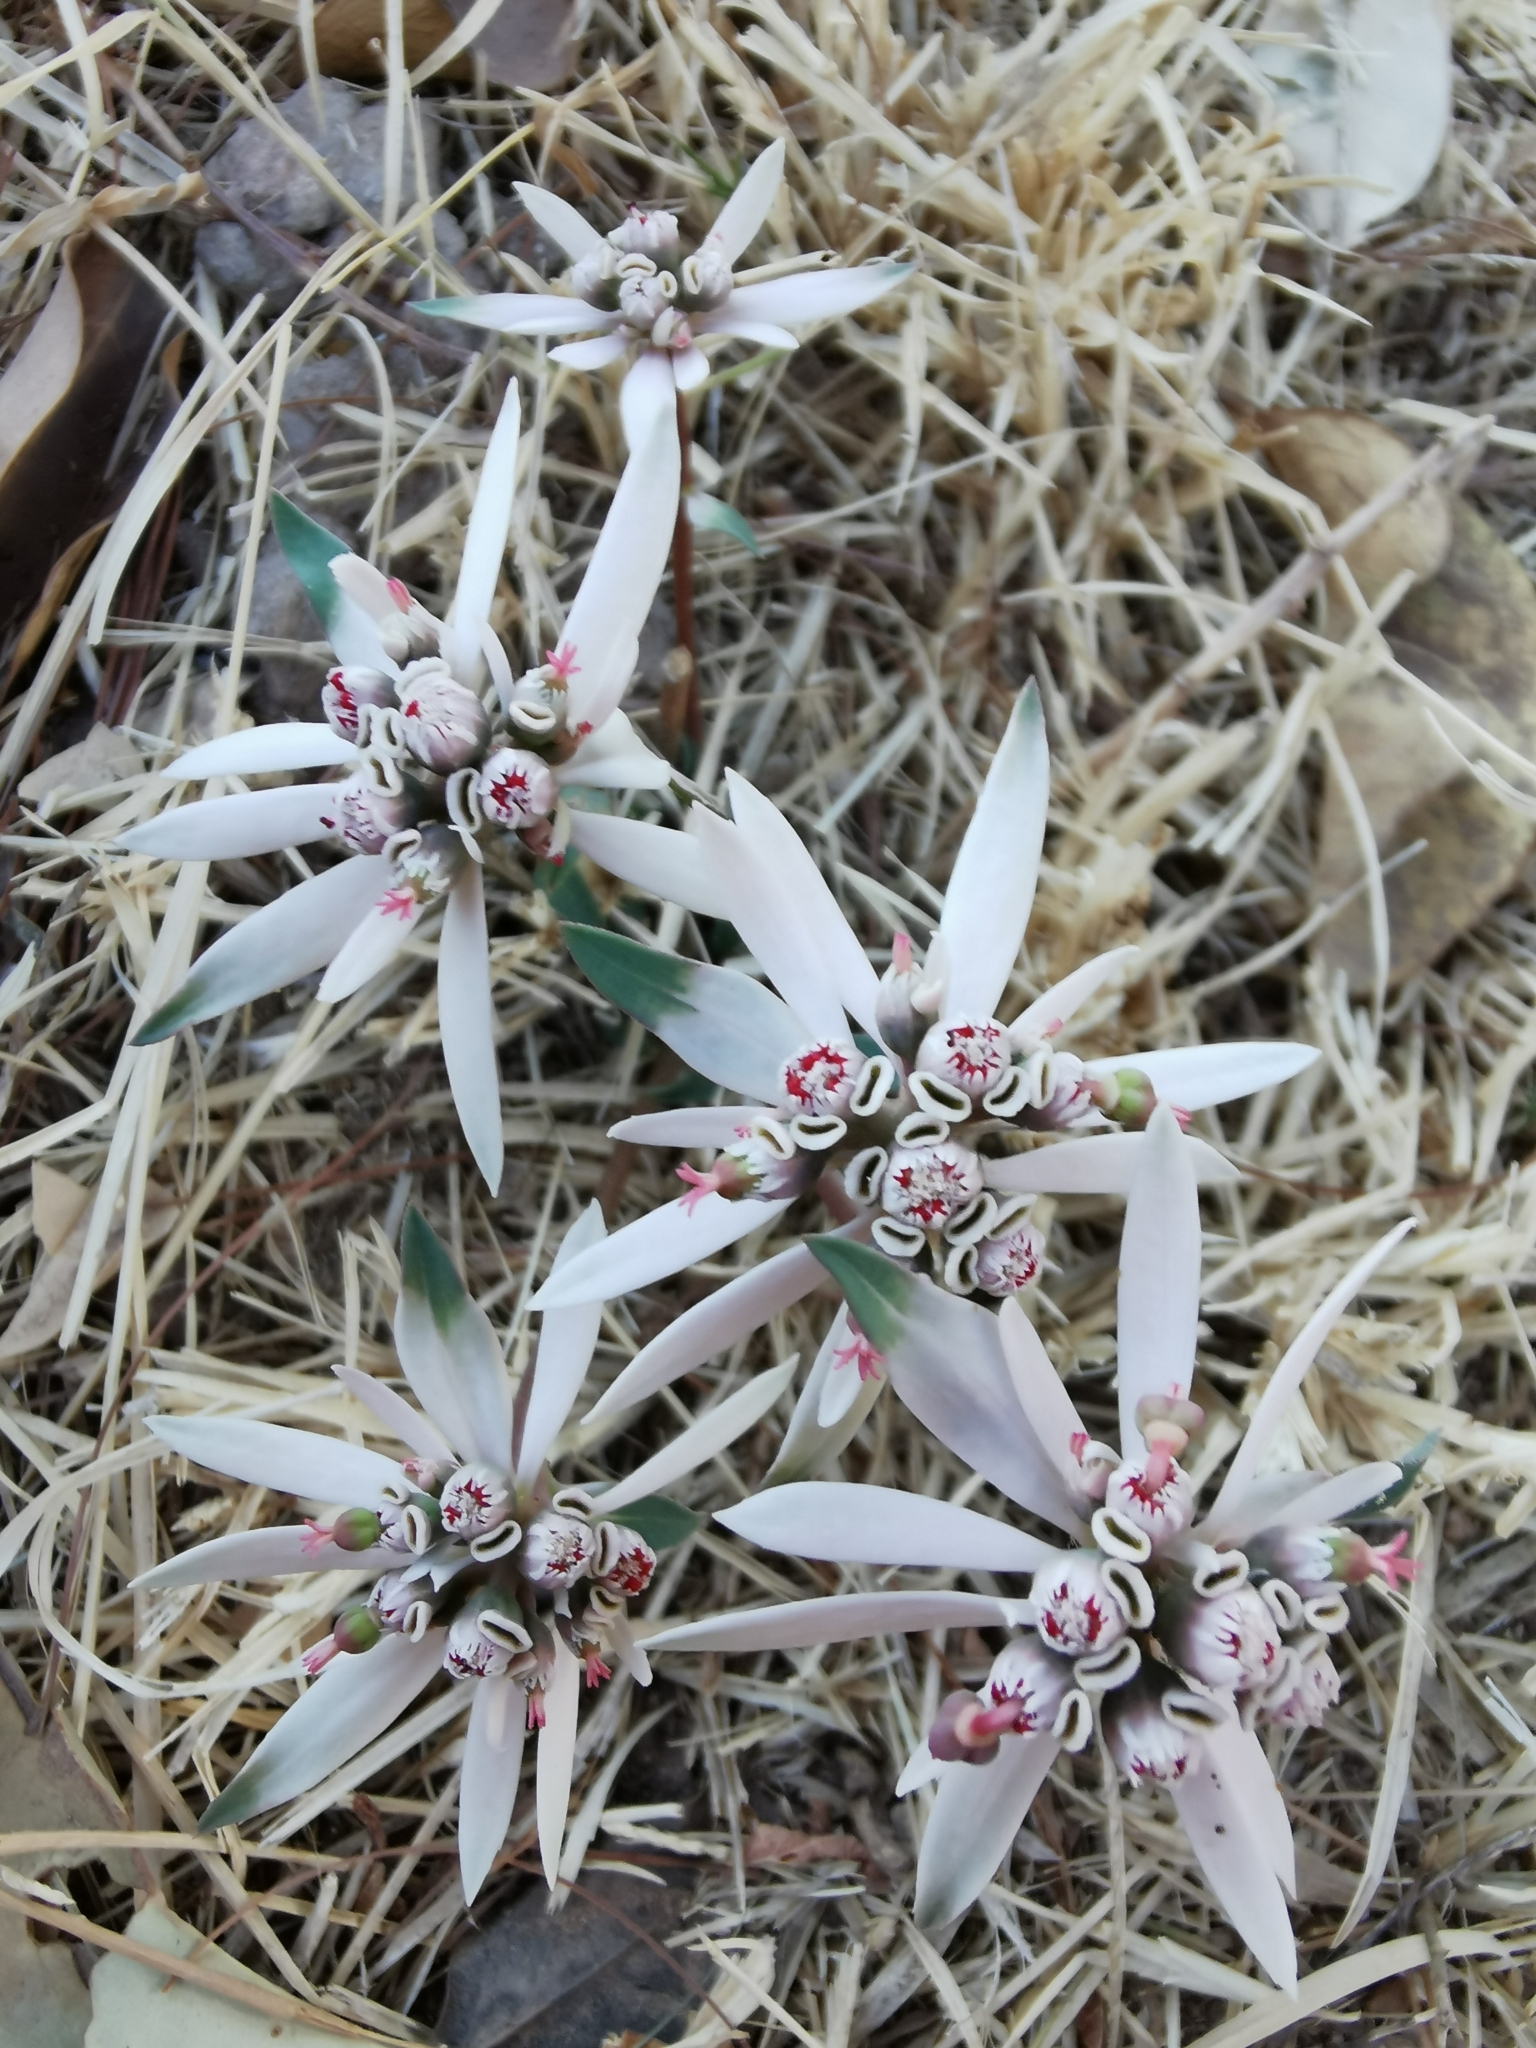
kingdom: Plantae
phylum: Tracheophyta
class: Magnoliopsida
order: Malpighiales
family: Euphorbiaceae
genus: Euphorbia
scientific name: Euphorbia radians
